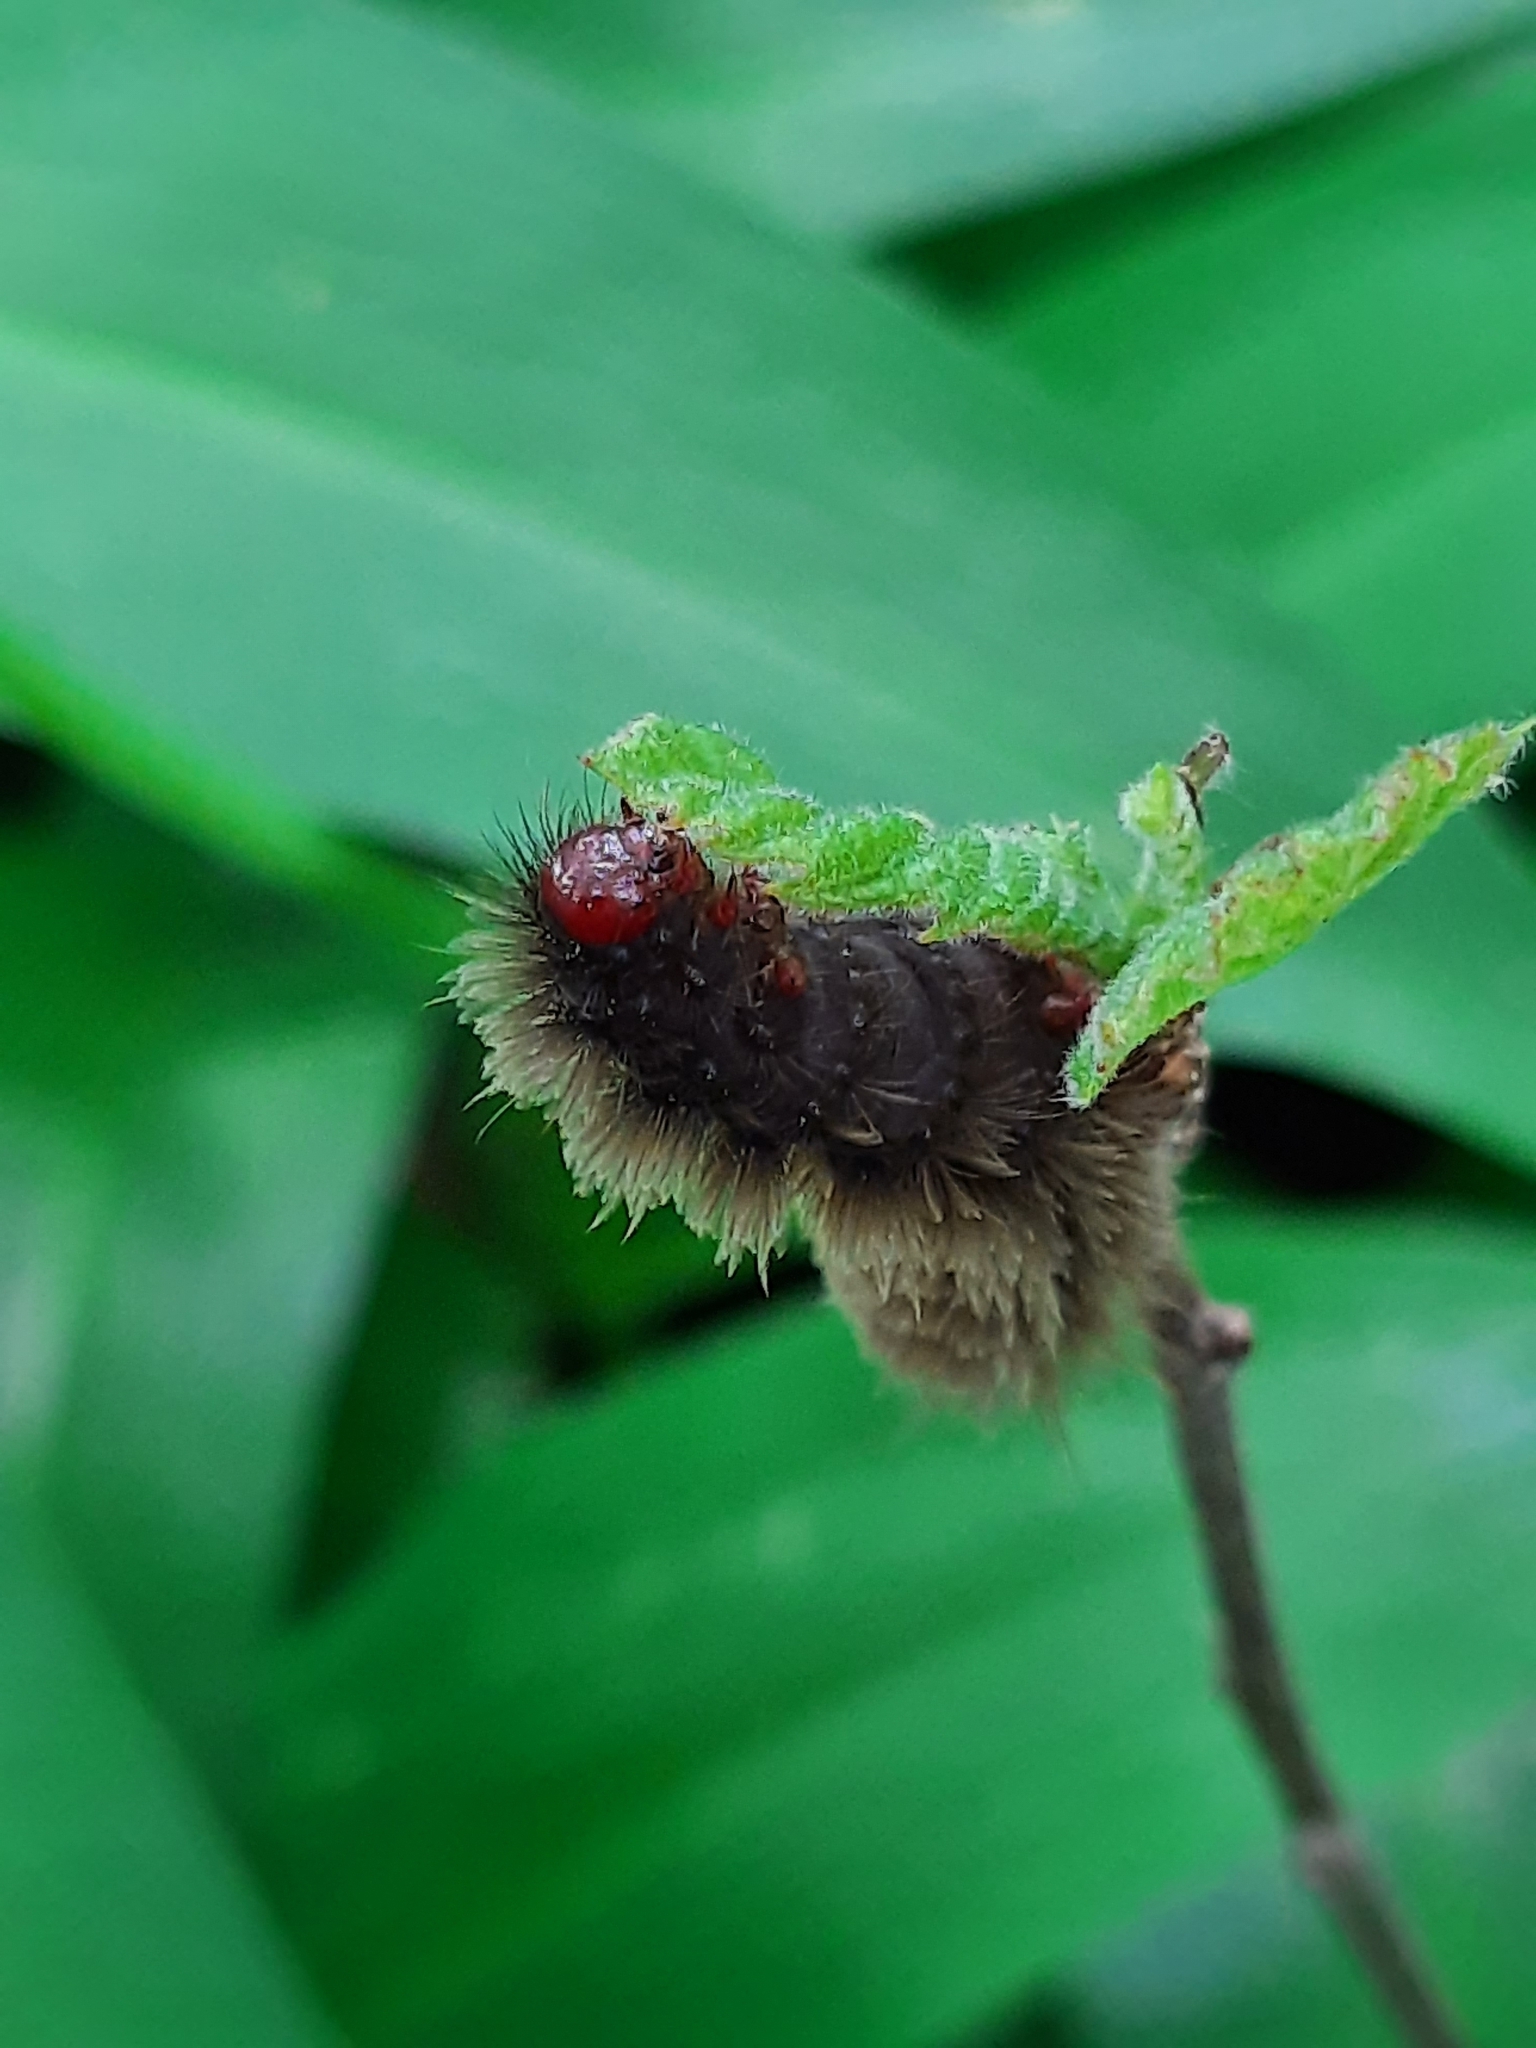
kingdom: Animalia
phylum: Arthropoda
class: Insecta
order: Lepidoptera
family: Erebidae
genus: Amata
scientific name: Amata phegea
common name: Nine-spotted
